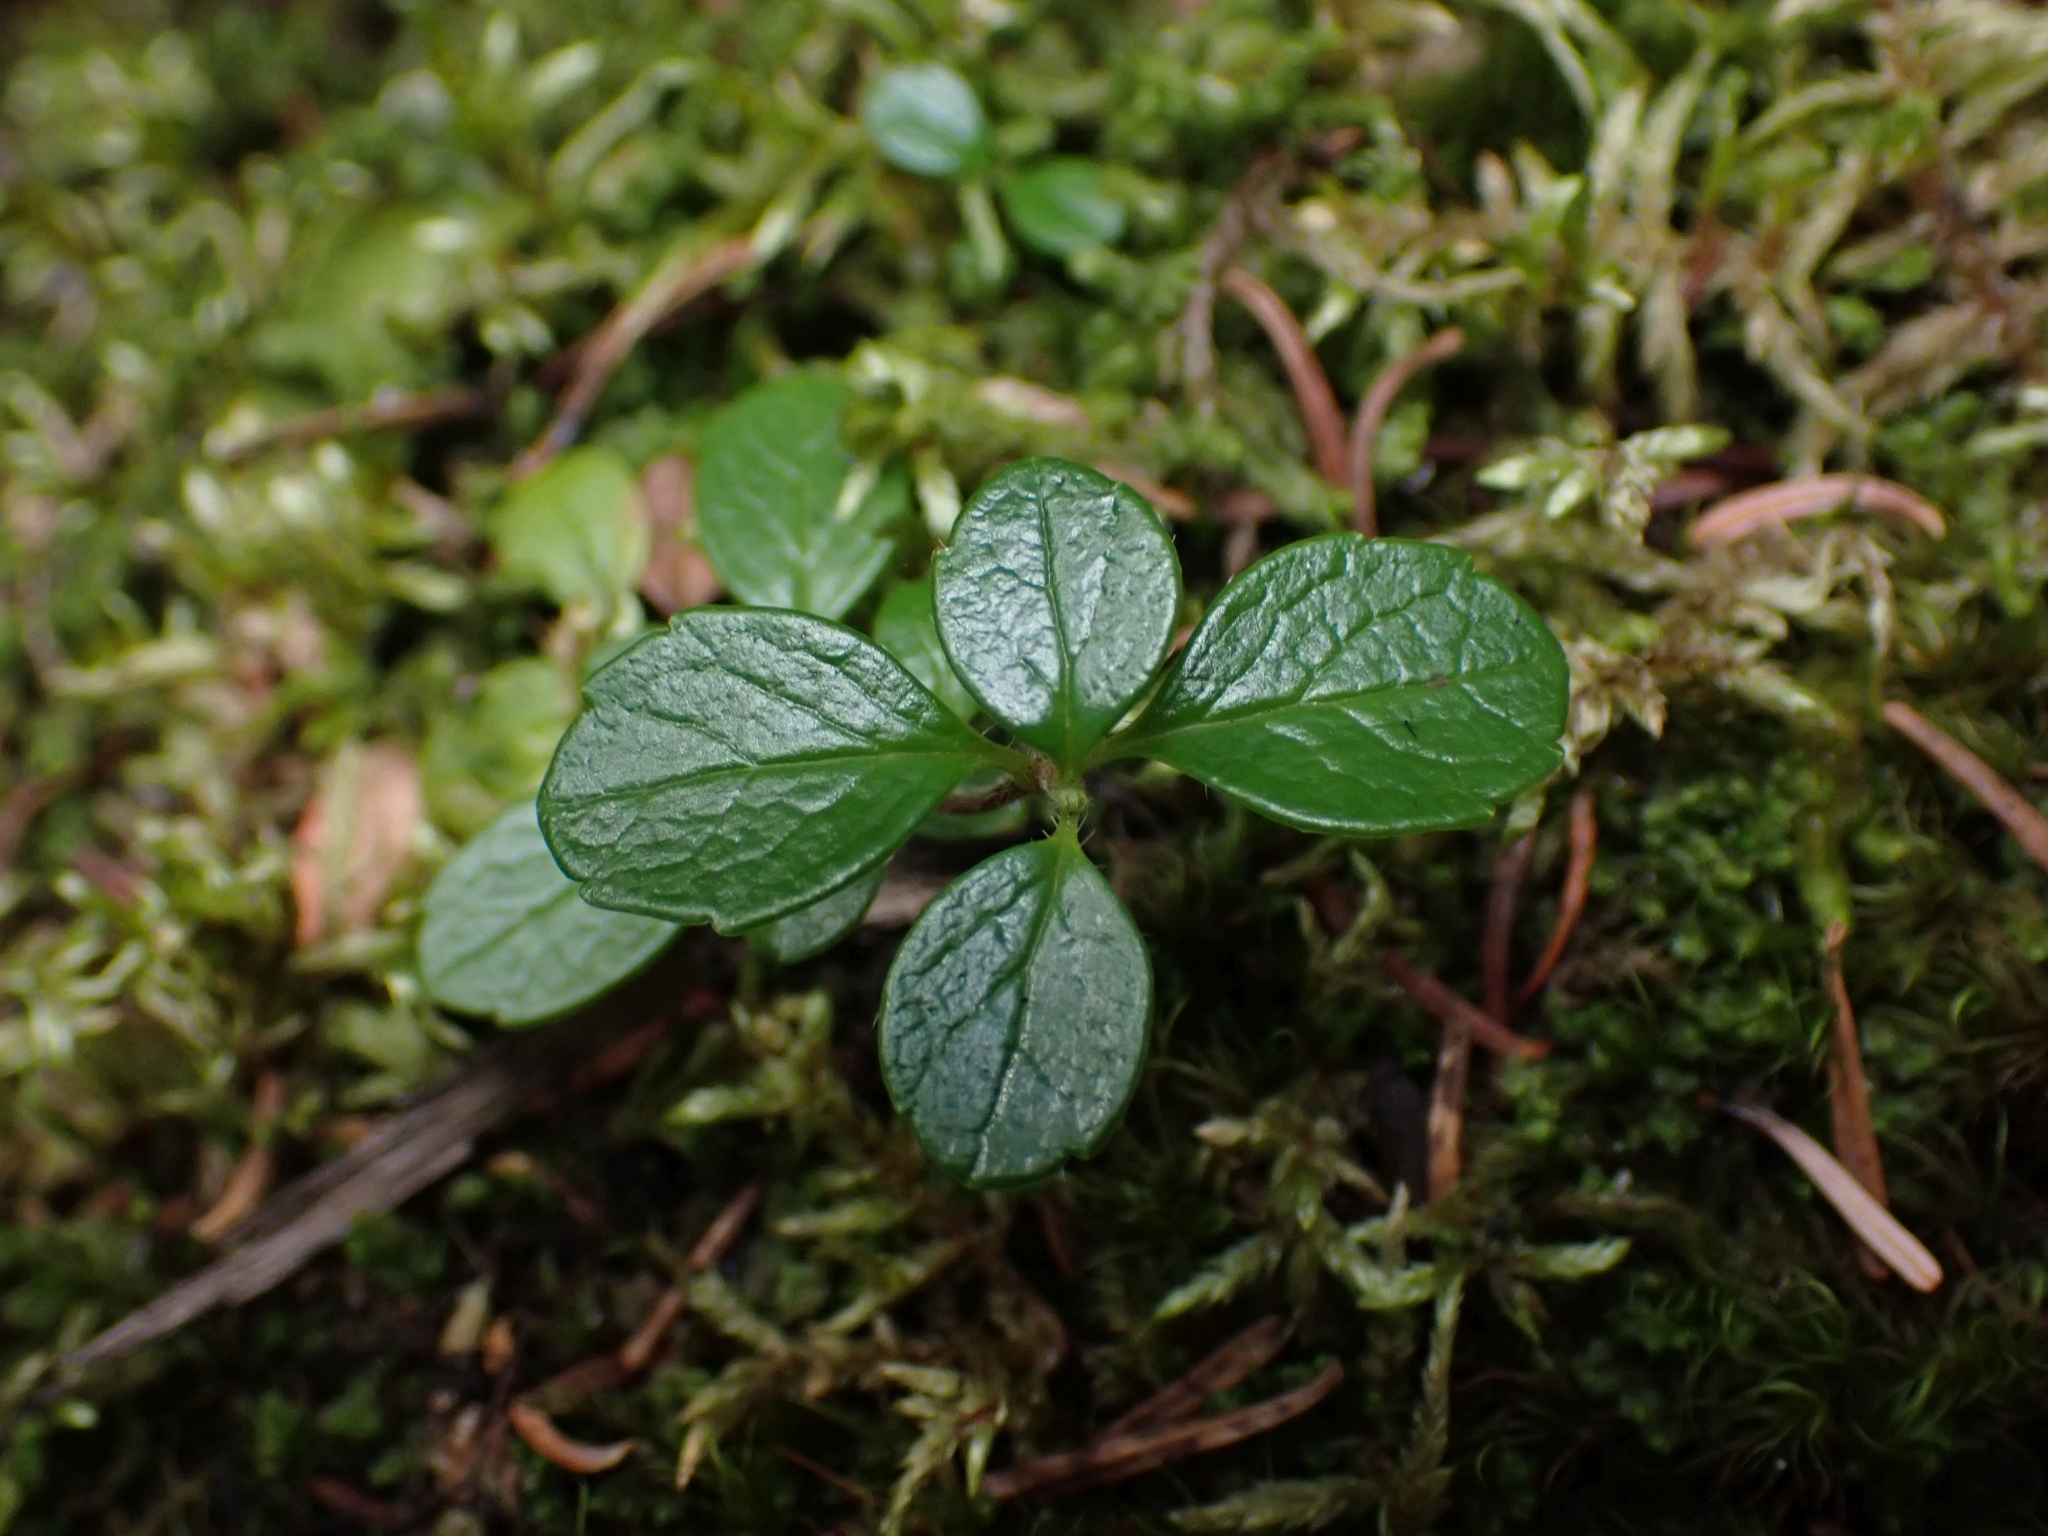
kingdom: Plantae
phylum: Tracheophyta
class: Magnoliopsida
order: Dipsacales
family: Caprifoliaceae
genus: Linnaea
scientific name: Linnaea borealis
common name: Twinflower
